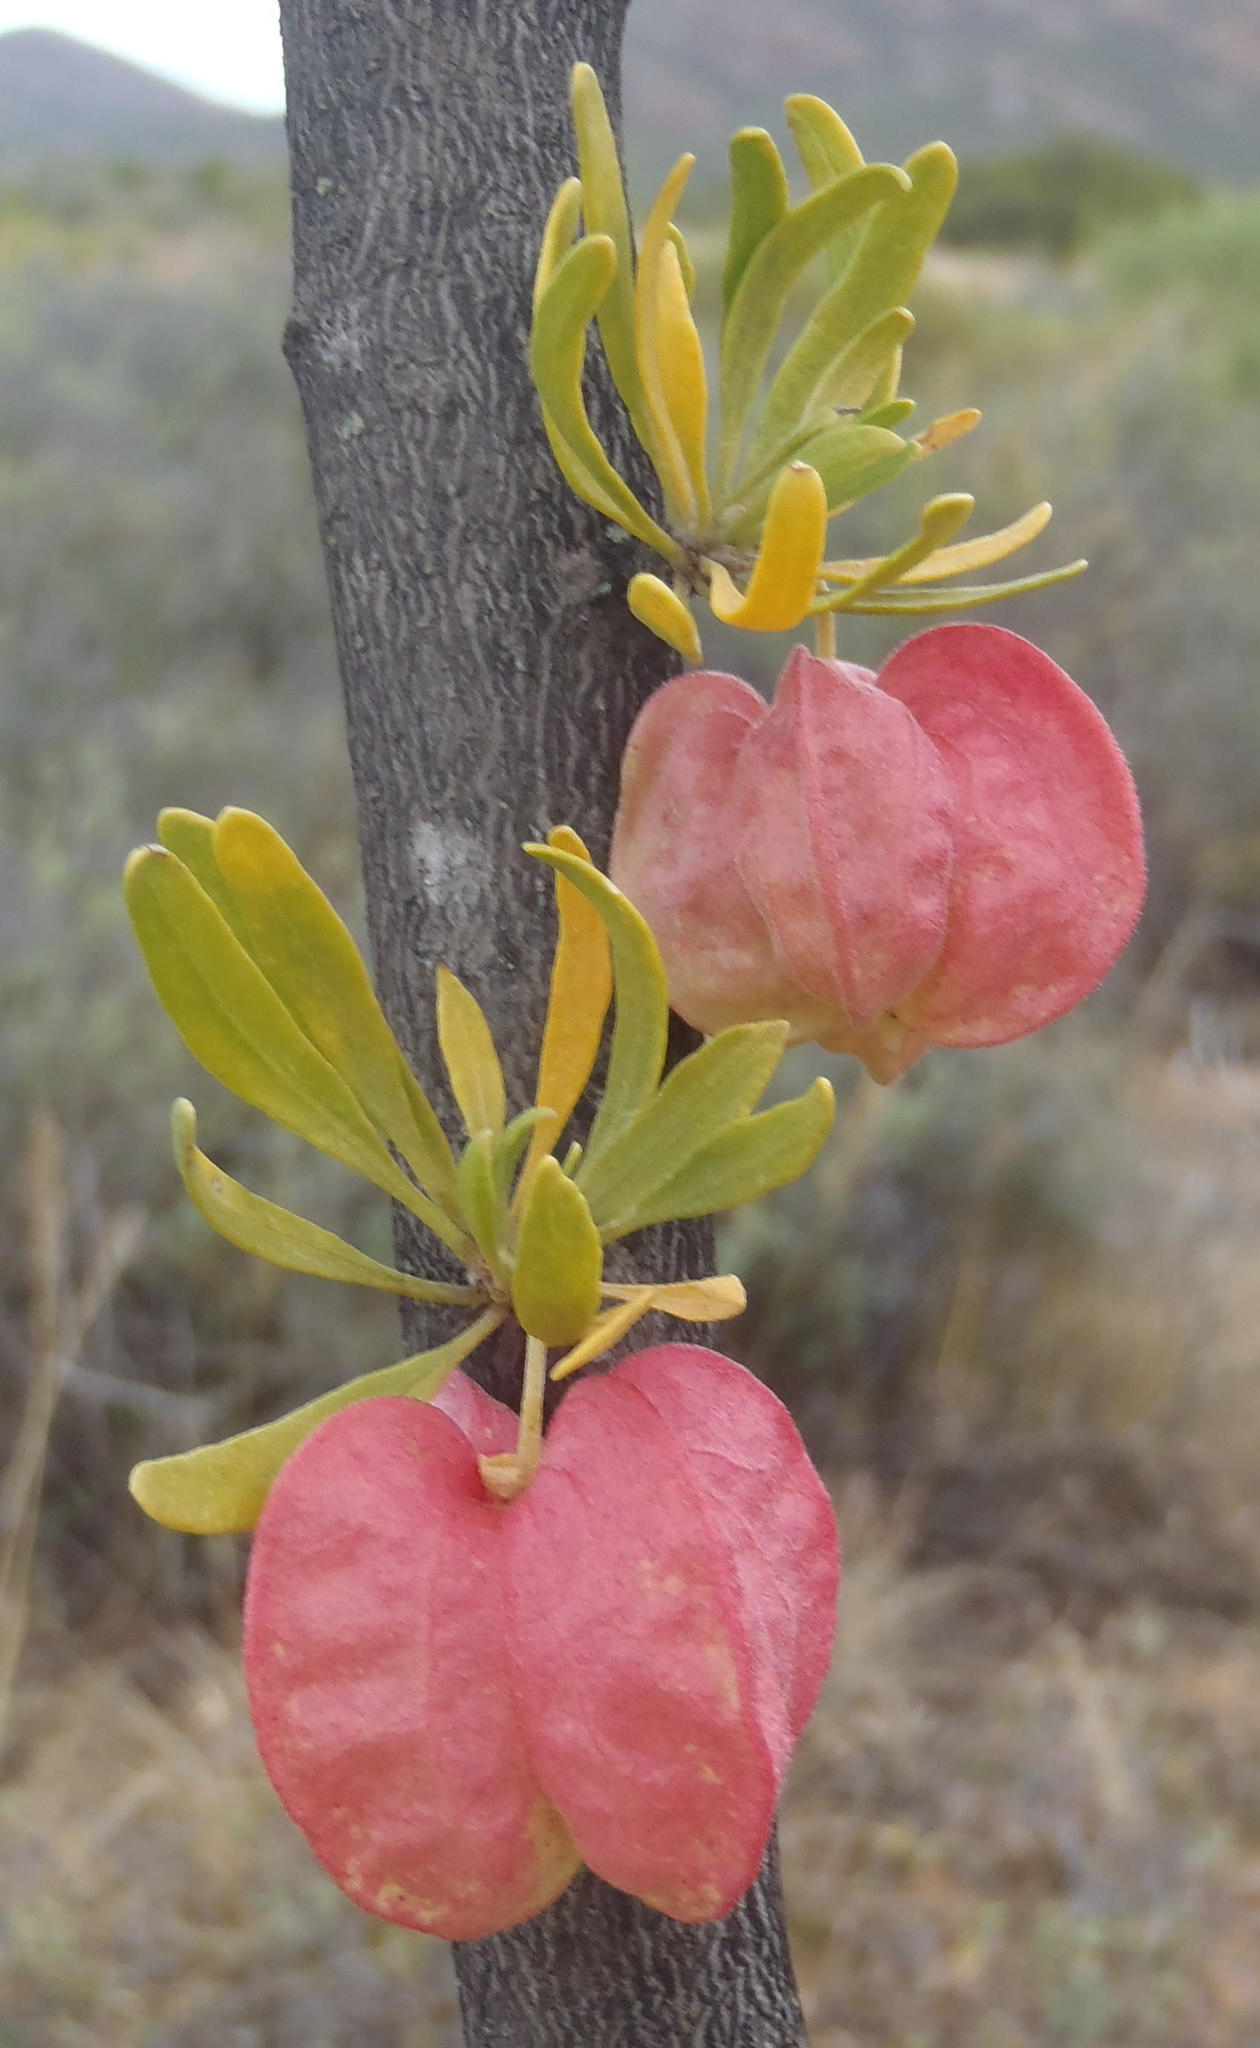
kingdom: Plantae
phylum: Tracheophyta
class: Magnoliopsida
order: Sapindales
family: Meliaceae
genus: Nymania
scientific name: Nymania capensis
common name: Chinese lantern tree
